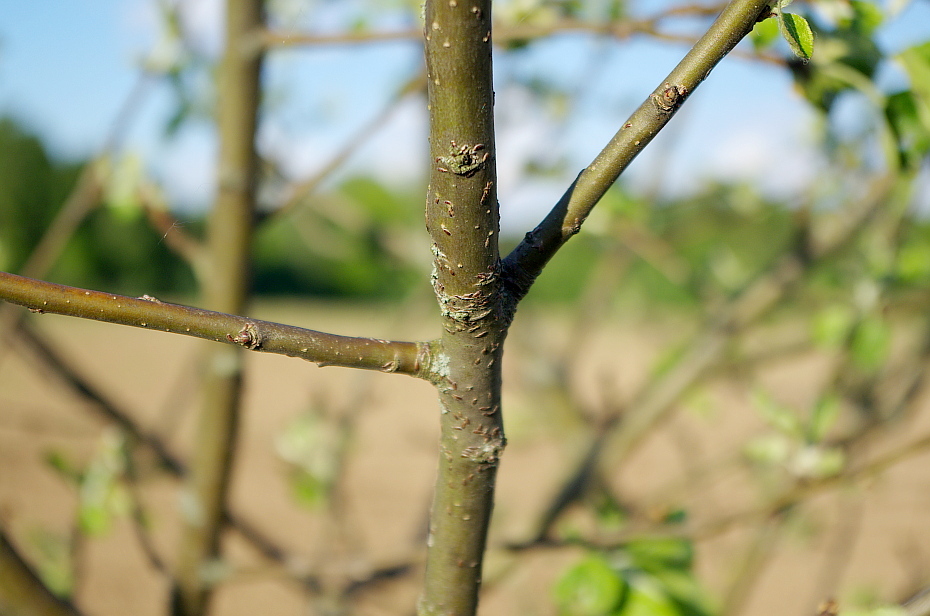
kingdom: Plantae
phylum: Tracheophyta
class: Magnoliopsida
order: Rosales
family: Rosaceae
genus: Malus
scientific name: Malus domestica
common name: Apple
